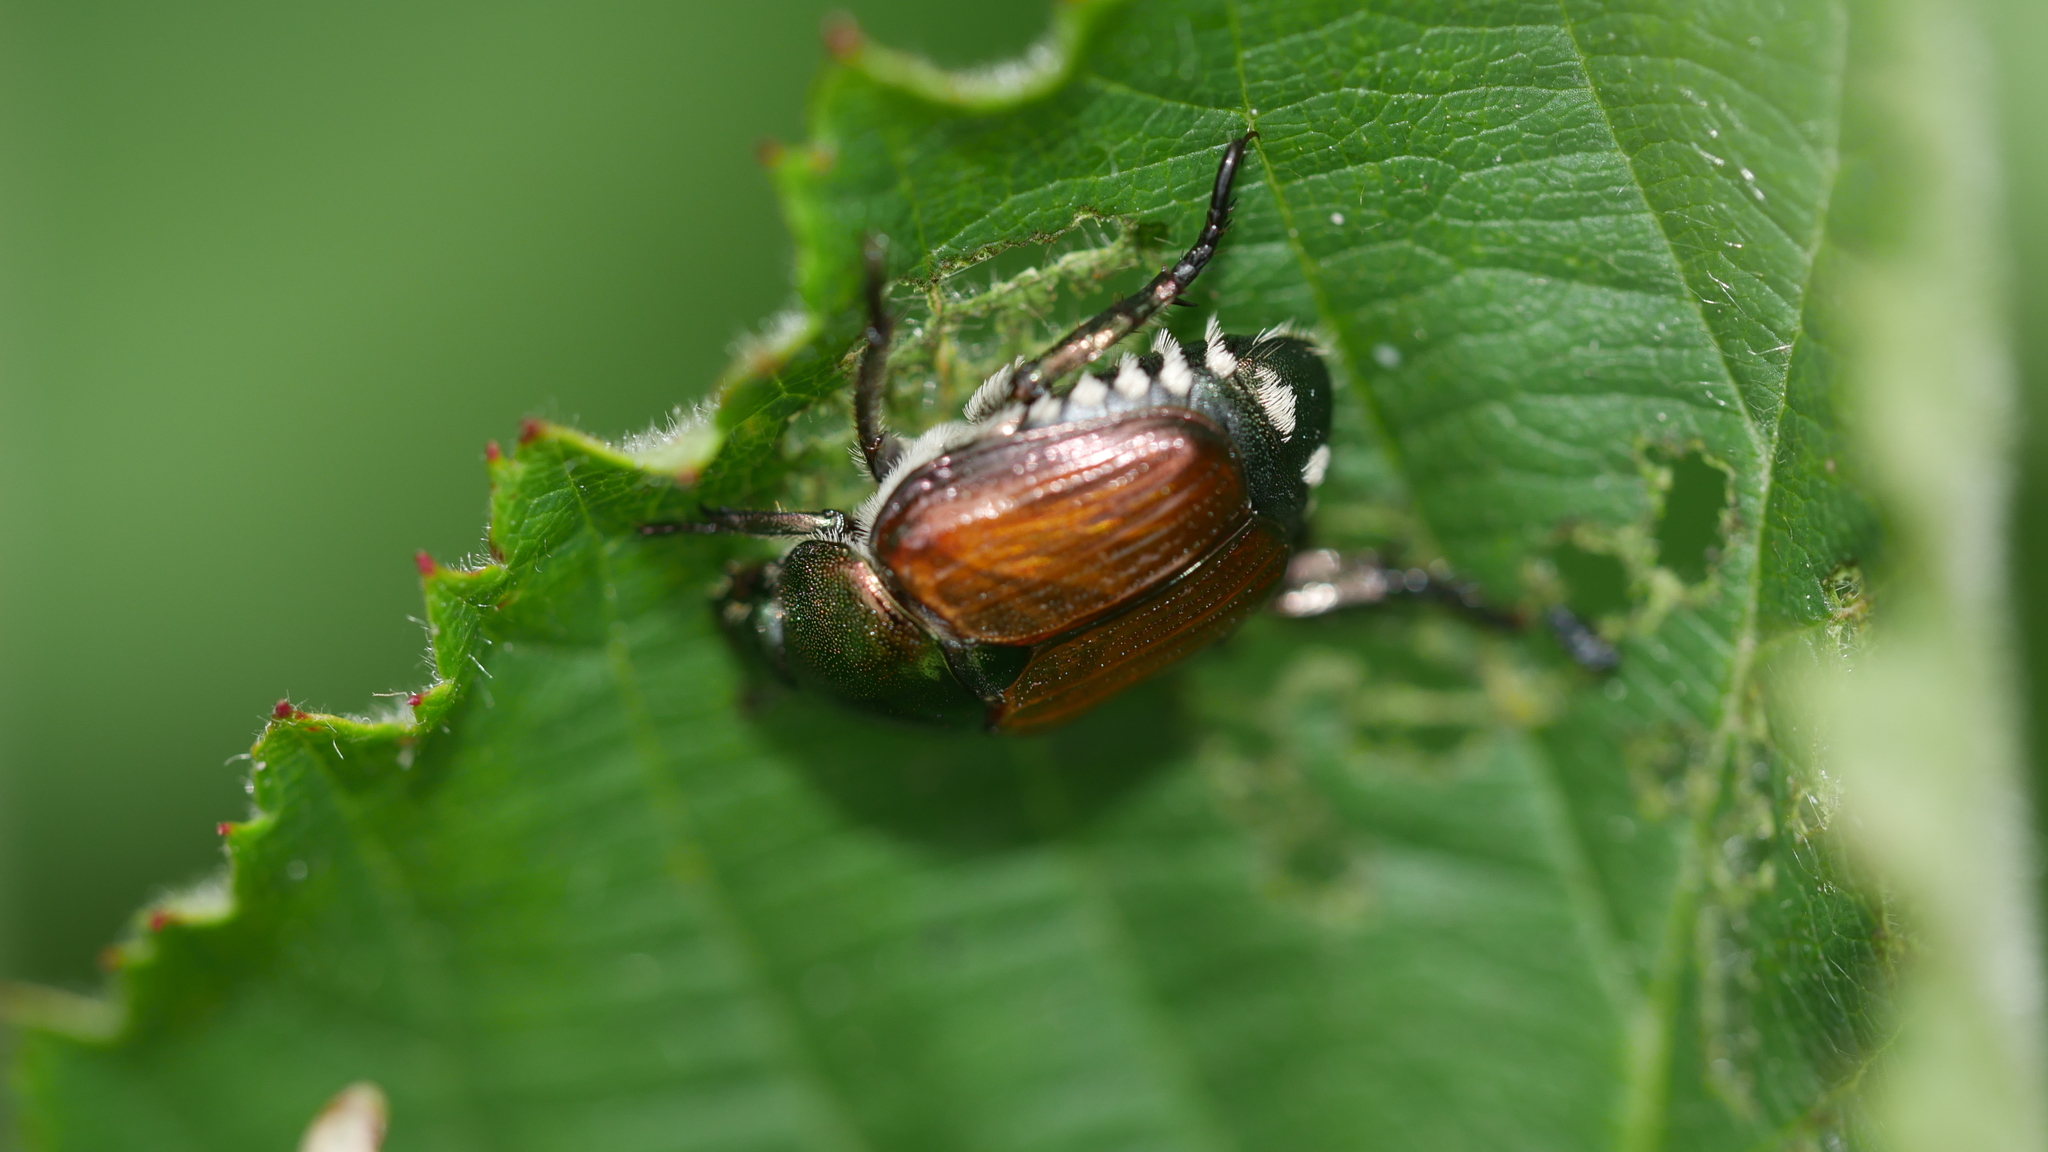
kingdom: Animalia
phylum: Arthropoda
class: Insecta
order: Coleoptera
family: Scarabaeidae
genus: Popillia
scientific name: Popillia japonica
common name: Japanese beetle
